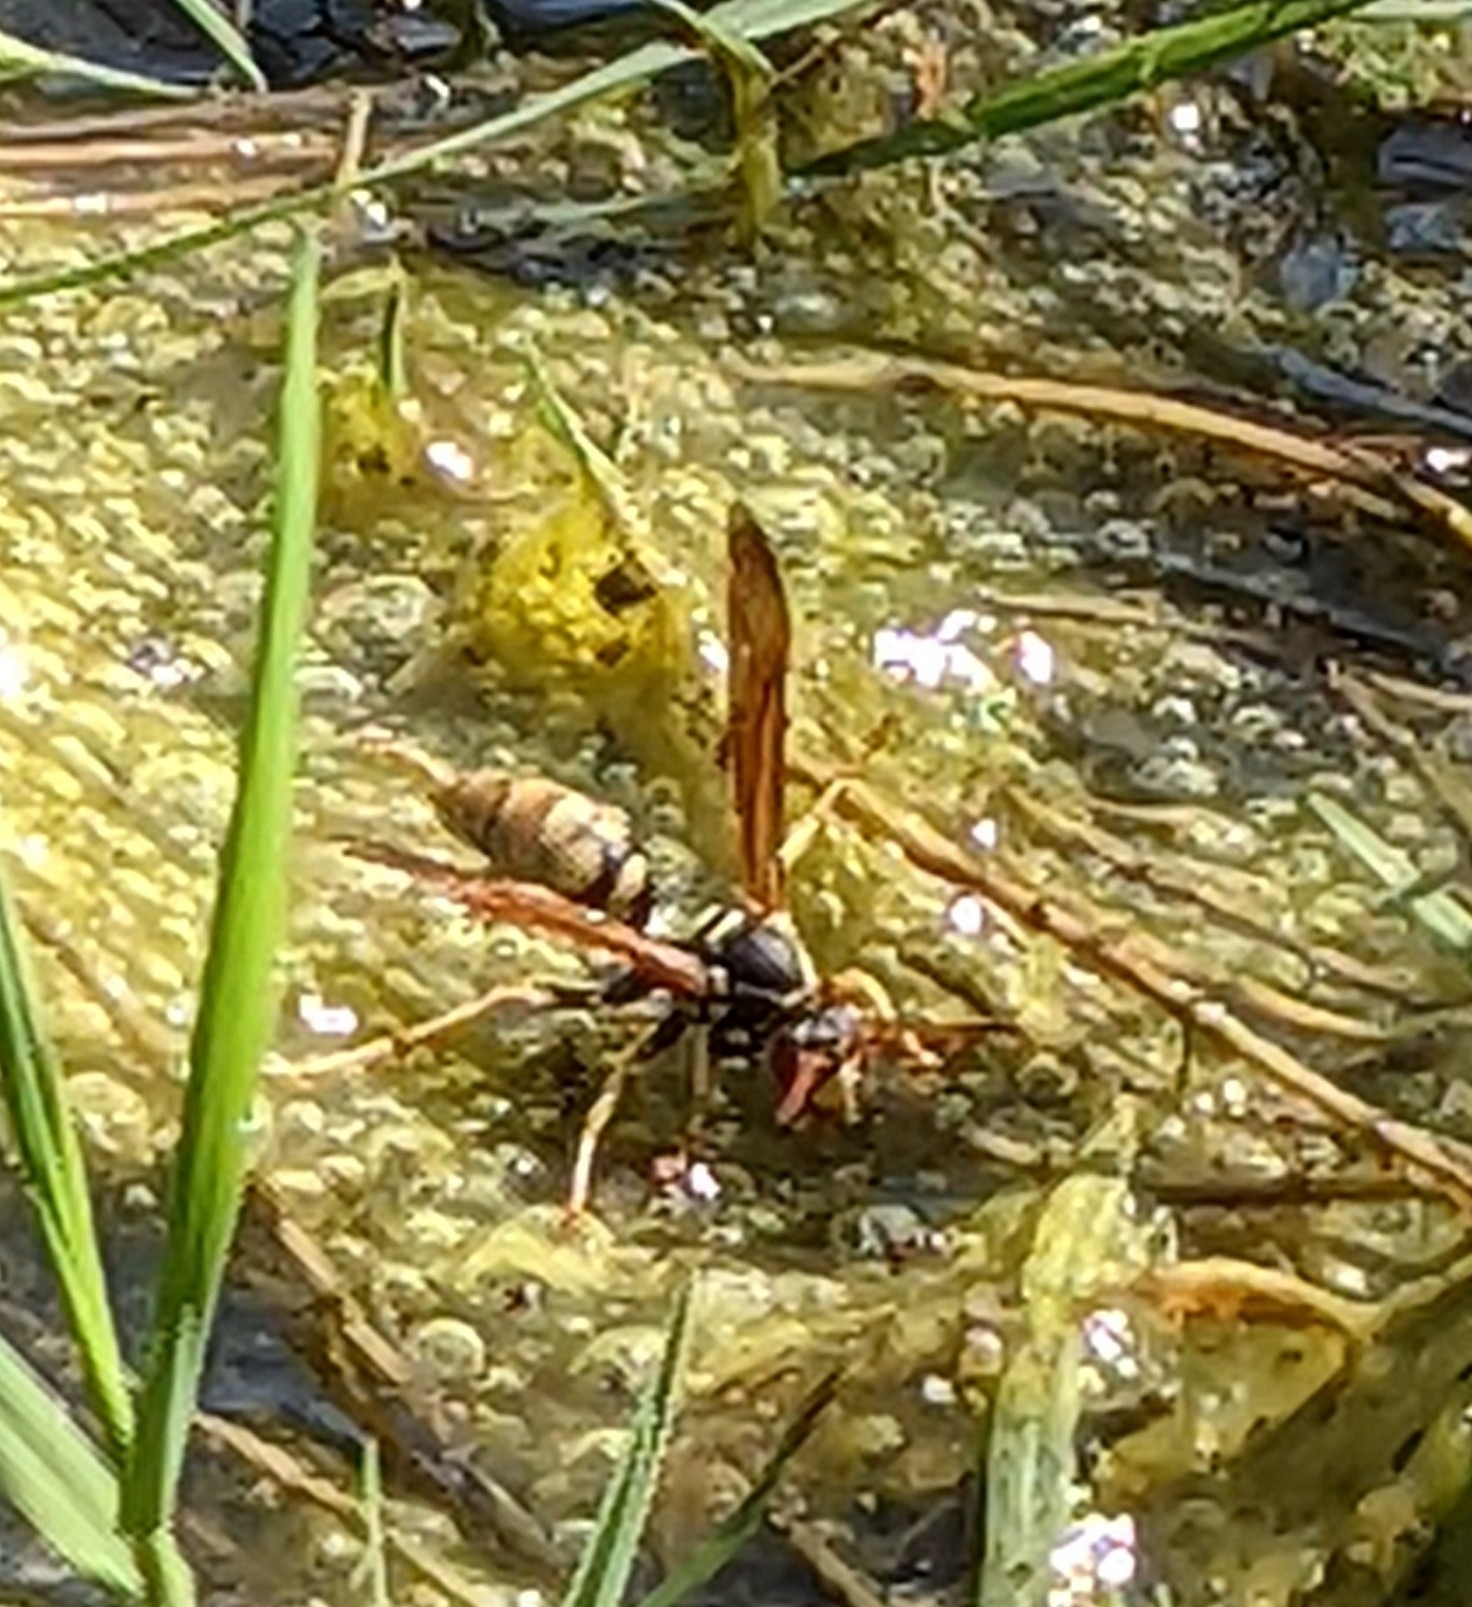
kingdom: Animalia
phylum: Arthropoda
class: Insecta
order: Hymenoptera
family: Eumenidae
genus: Polistes
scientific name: Polistes aurifer
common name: Paper wasp
